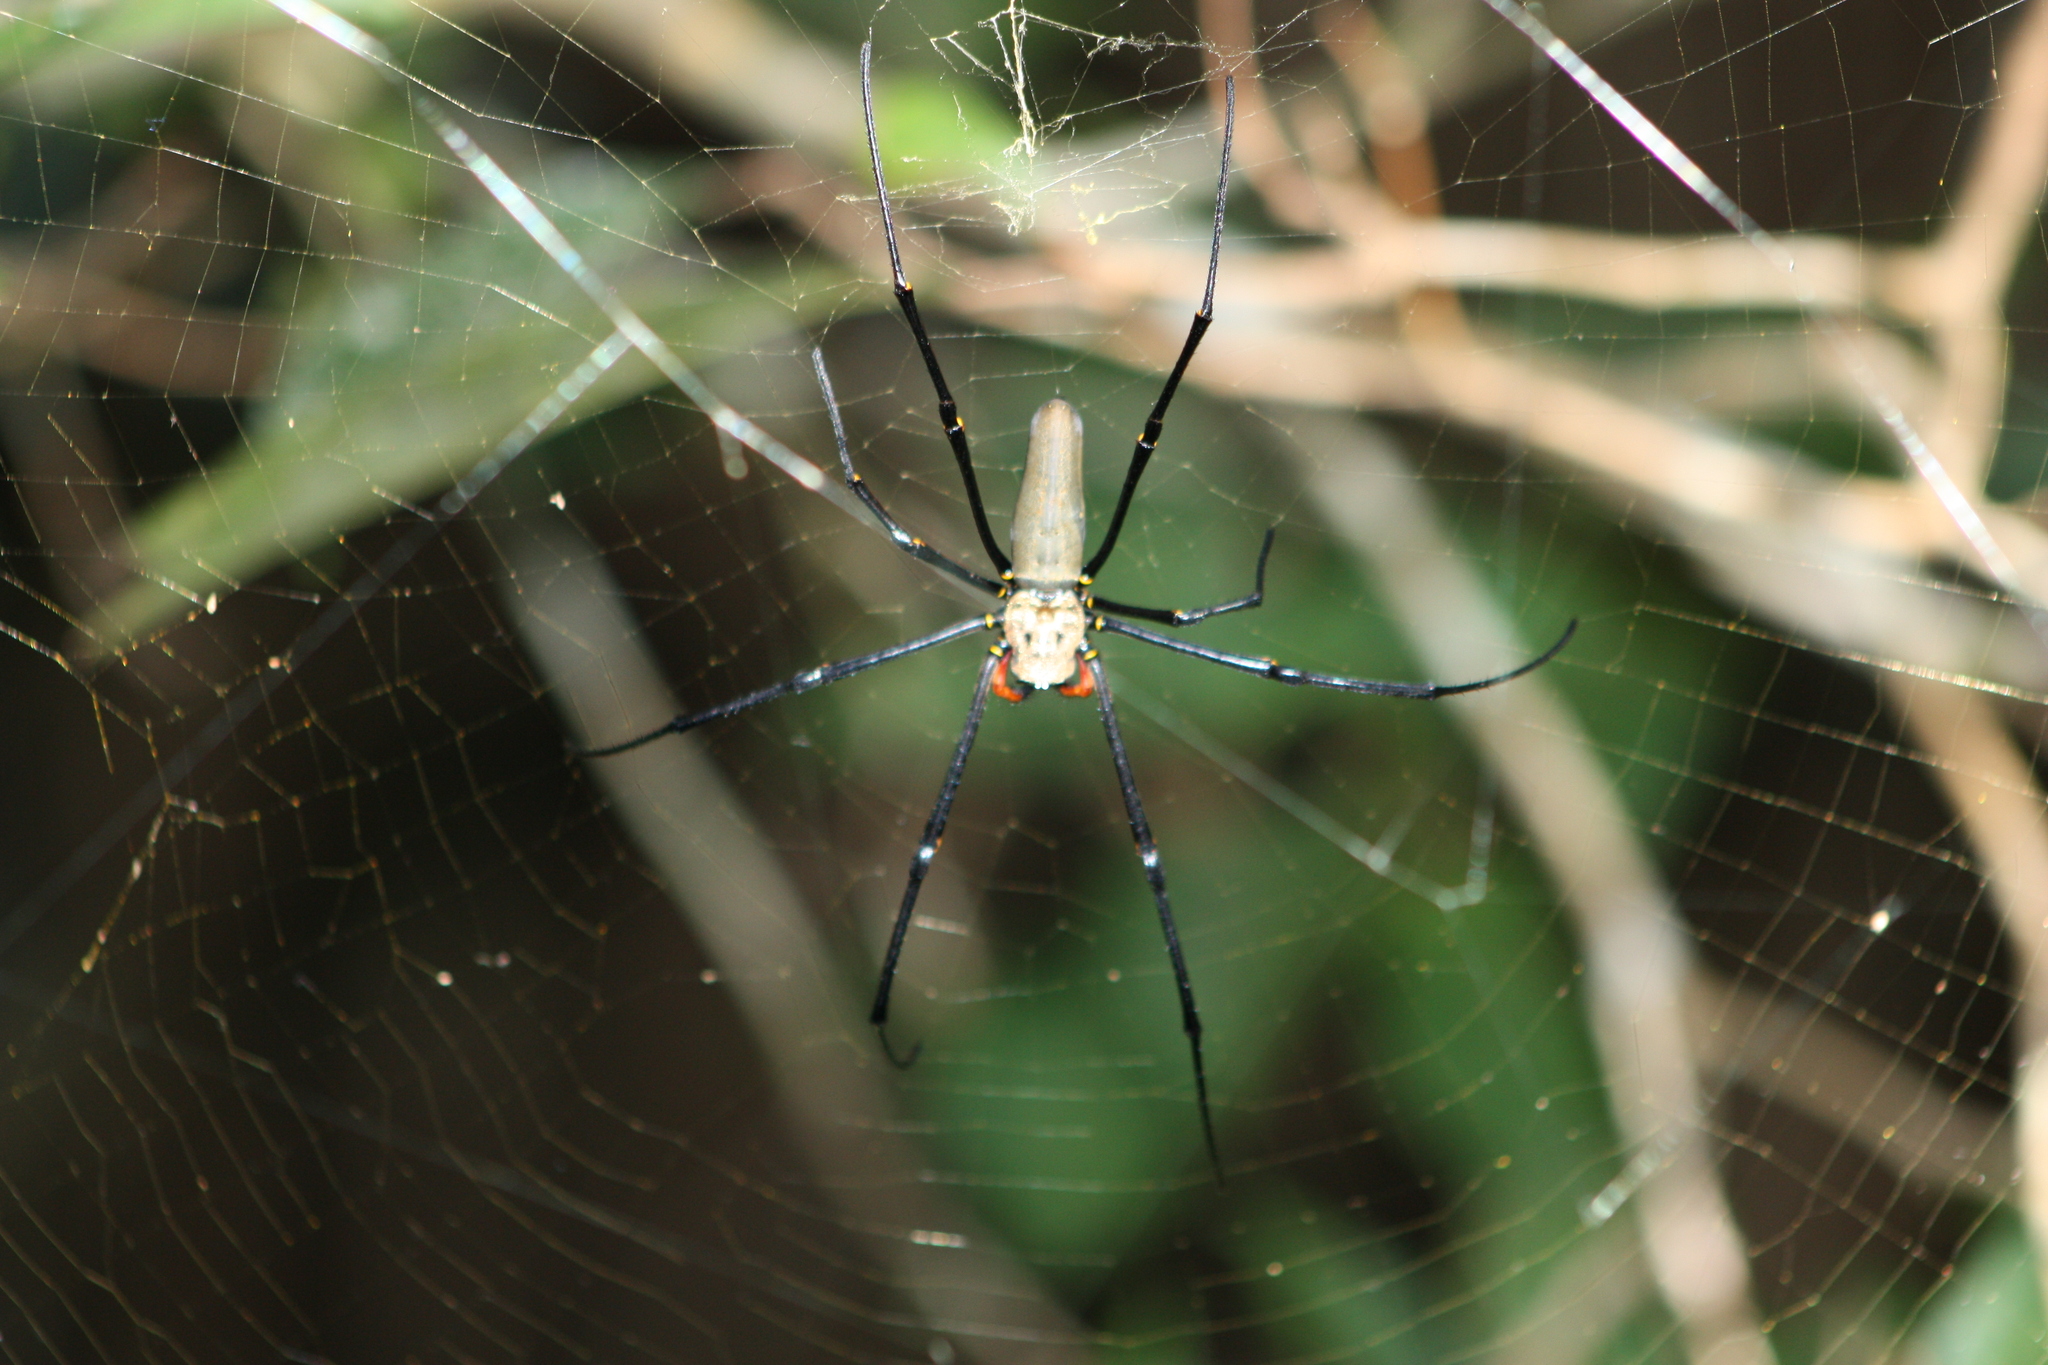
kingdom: Animalia
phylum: Arthropoda
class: Arachnida
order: Araneae
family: Araneidae
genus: Nephila
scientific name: Nephila pilipes
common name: Giant golden orb weaver
